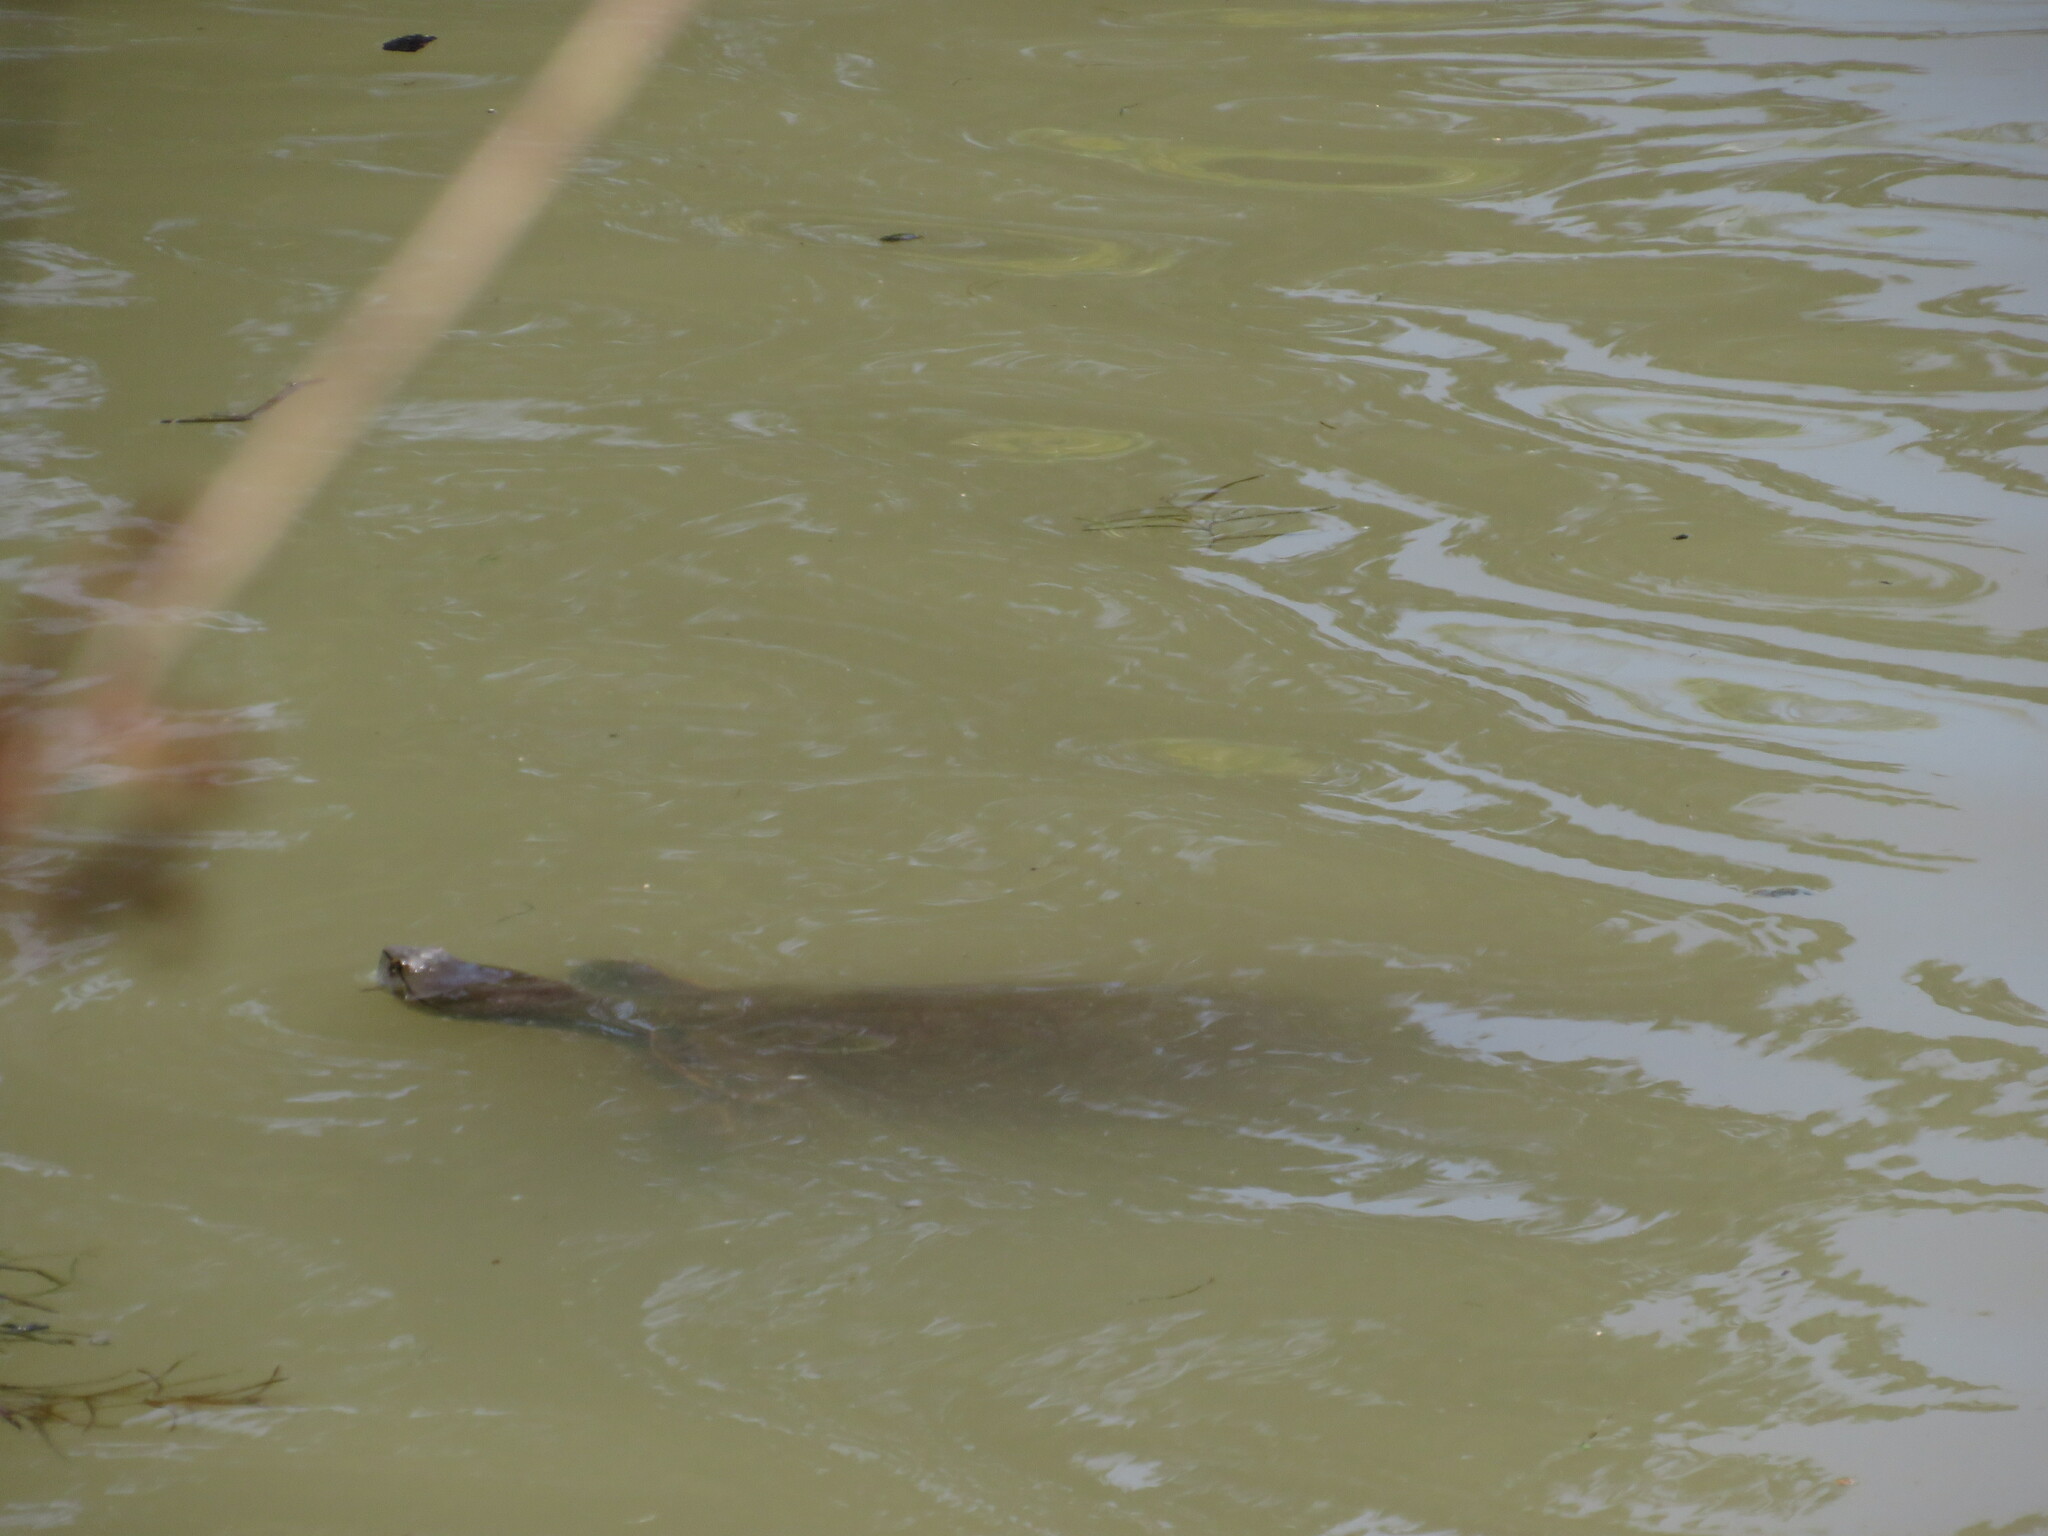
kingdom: Animalia
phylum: Chordata
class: Testudines
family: Chelidae
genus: Phrynops
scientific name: Phrynops hilarii
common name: Side-necked turtle of saint hillaire
